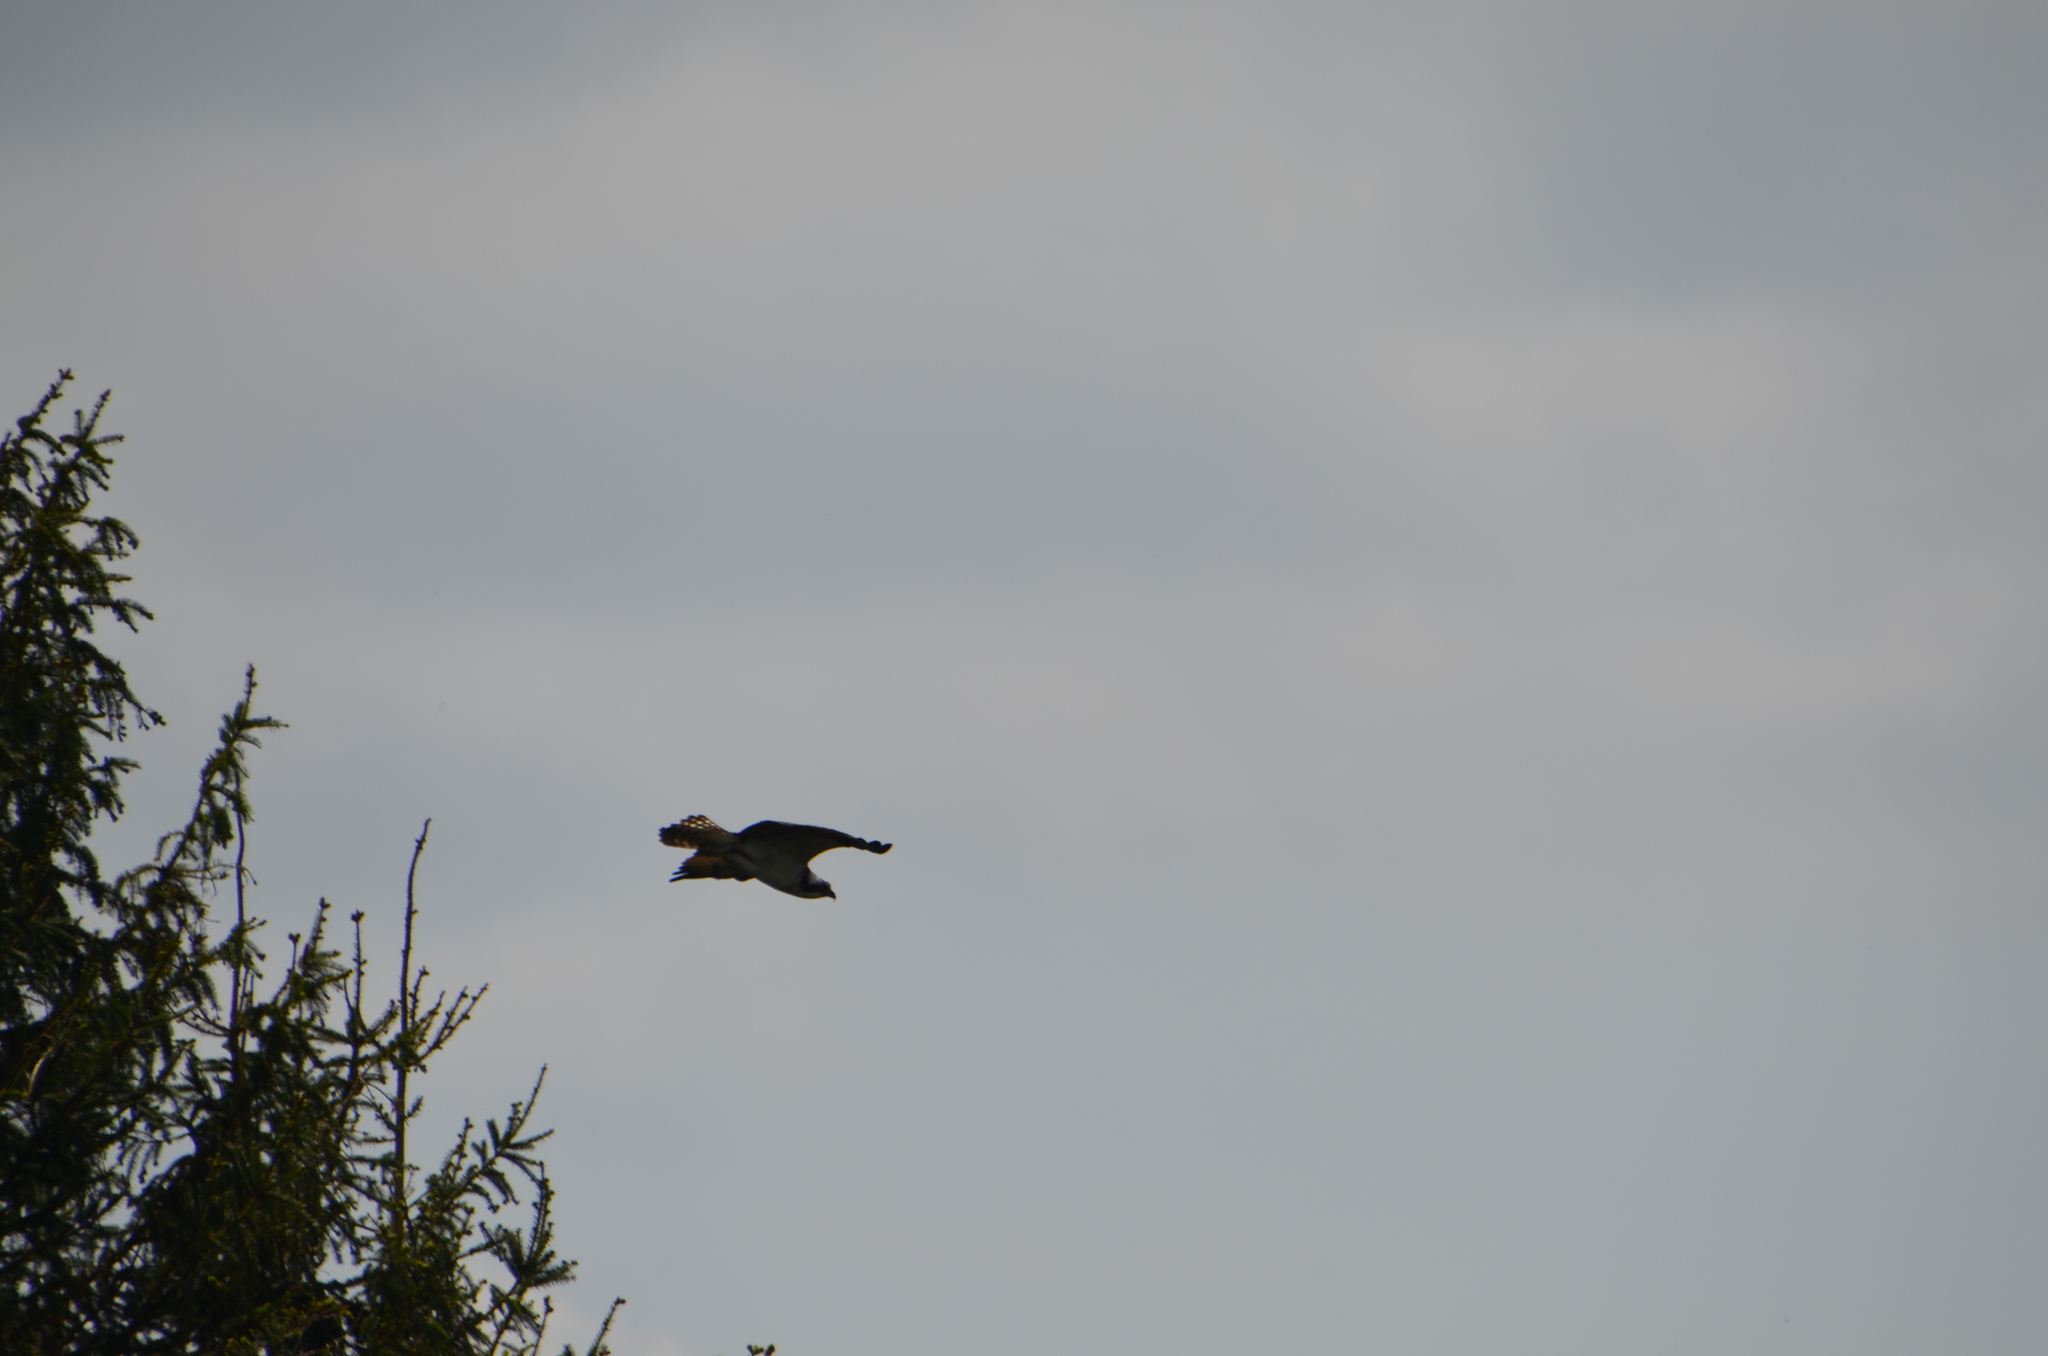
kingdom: Animalia
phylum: Chordata
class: Aves
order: Accipitriformes
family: Pandionidae
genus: Pandion
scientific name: Pandion haliaetus
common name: Osprey
